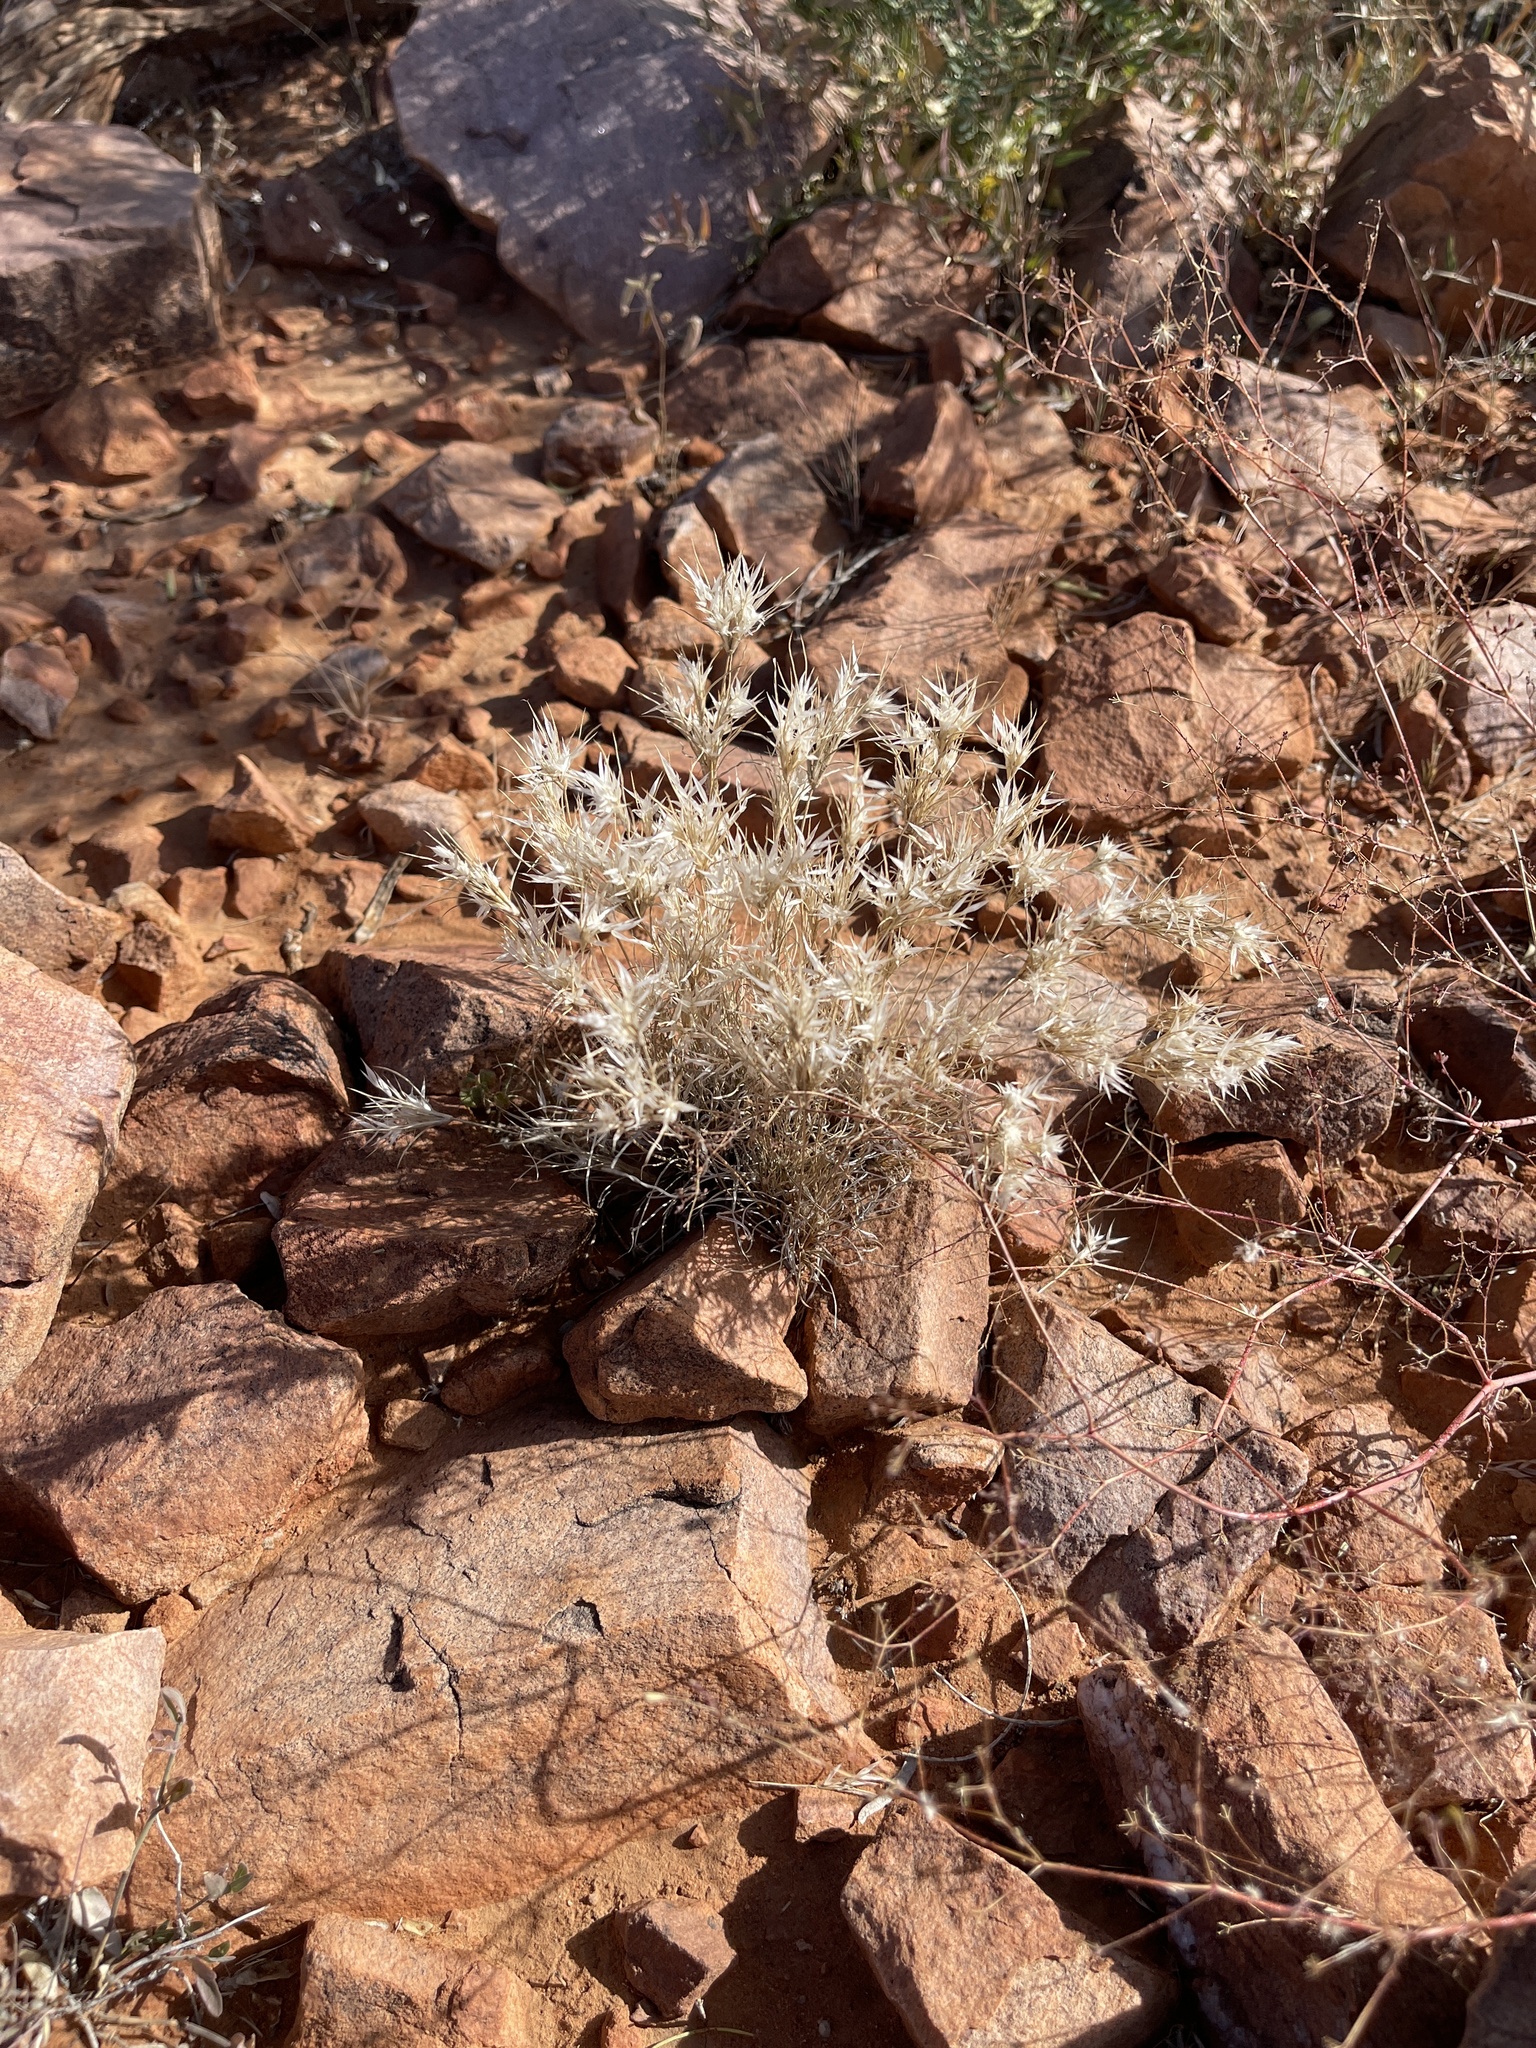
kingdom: Plantae
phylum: Tracheophyta
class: Liliopsida
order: Poales
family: Poaceae
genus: Dasyochloa
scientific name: Dasyochloa pulchella
